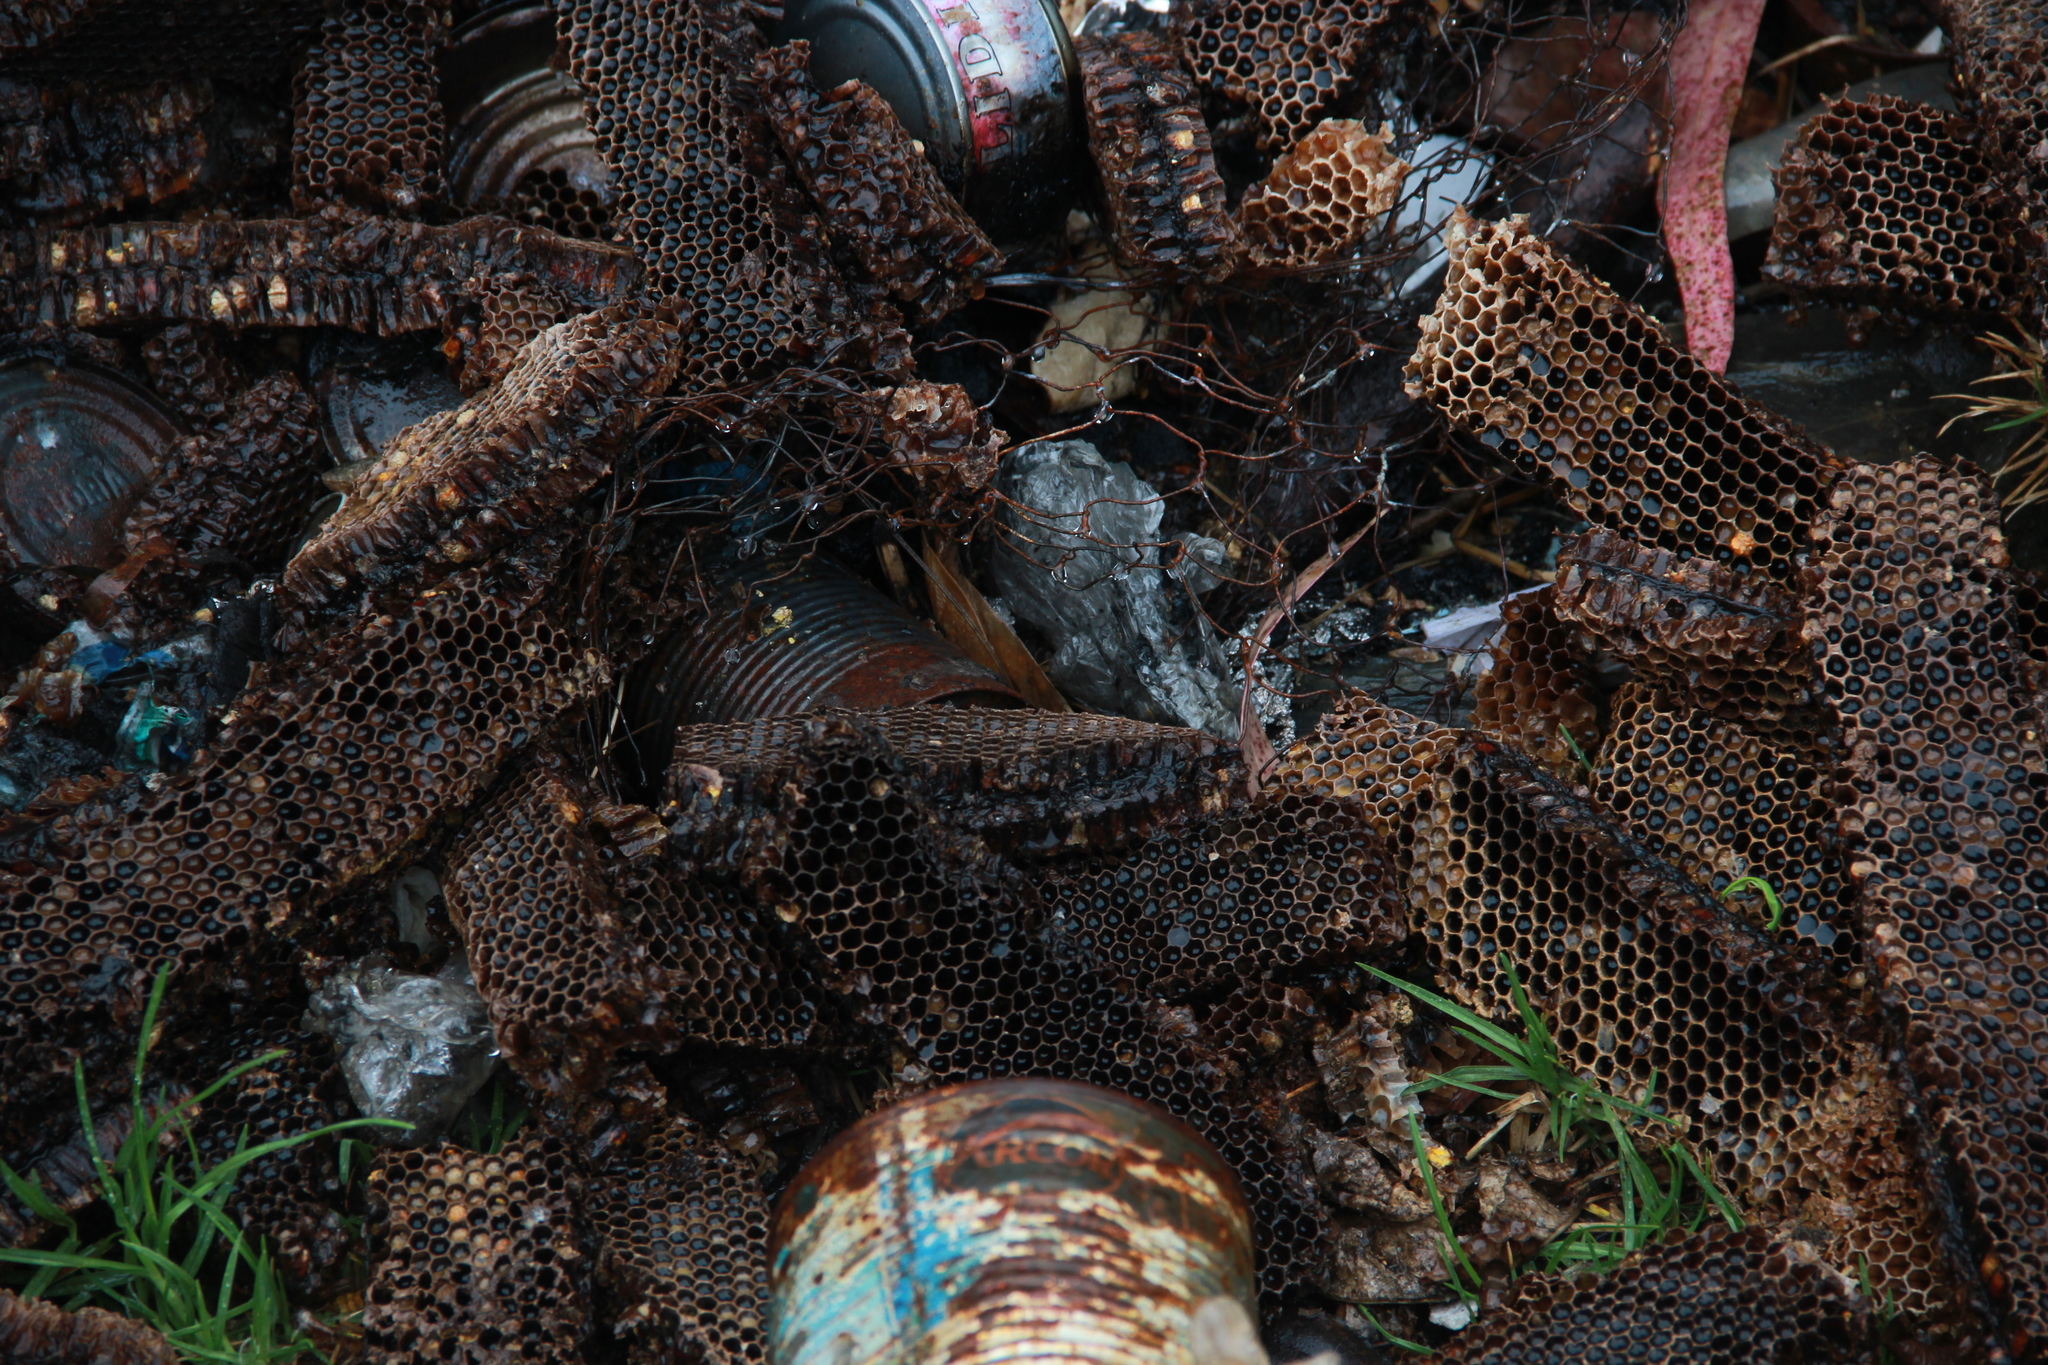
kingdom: Animalia
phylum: Arthropoda
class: Insecta
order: Hymenoptera
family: Apidae
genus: Apis
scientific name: Apis mellifera
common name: Honey bee
